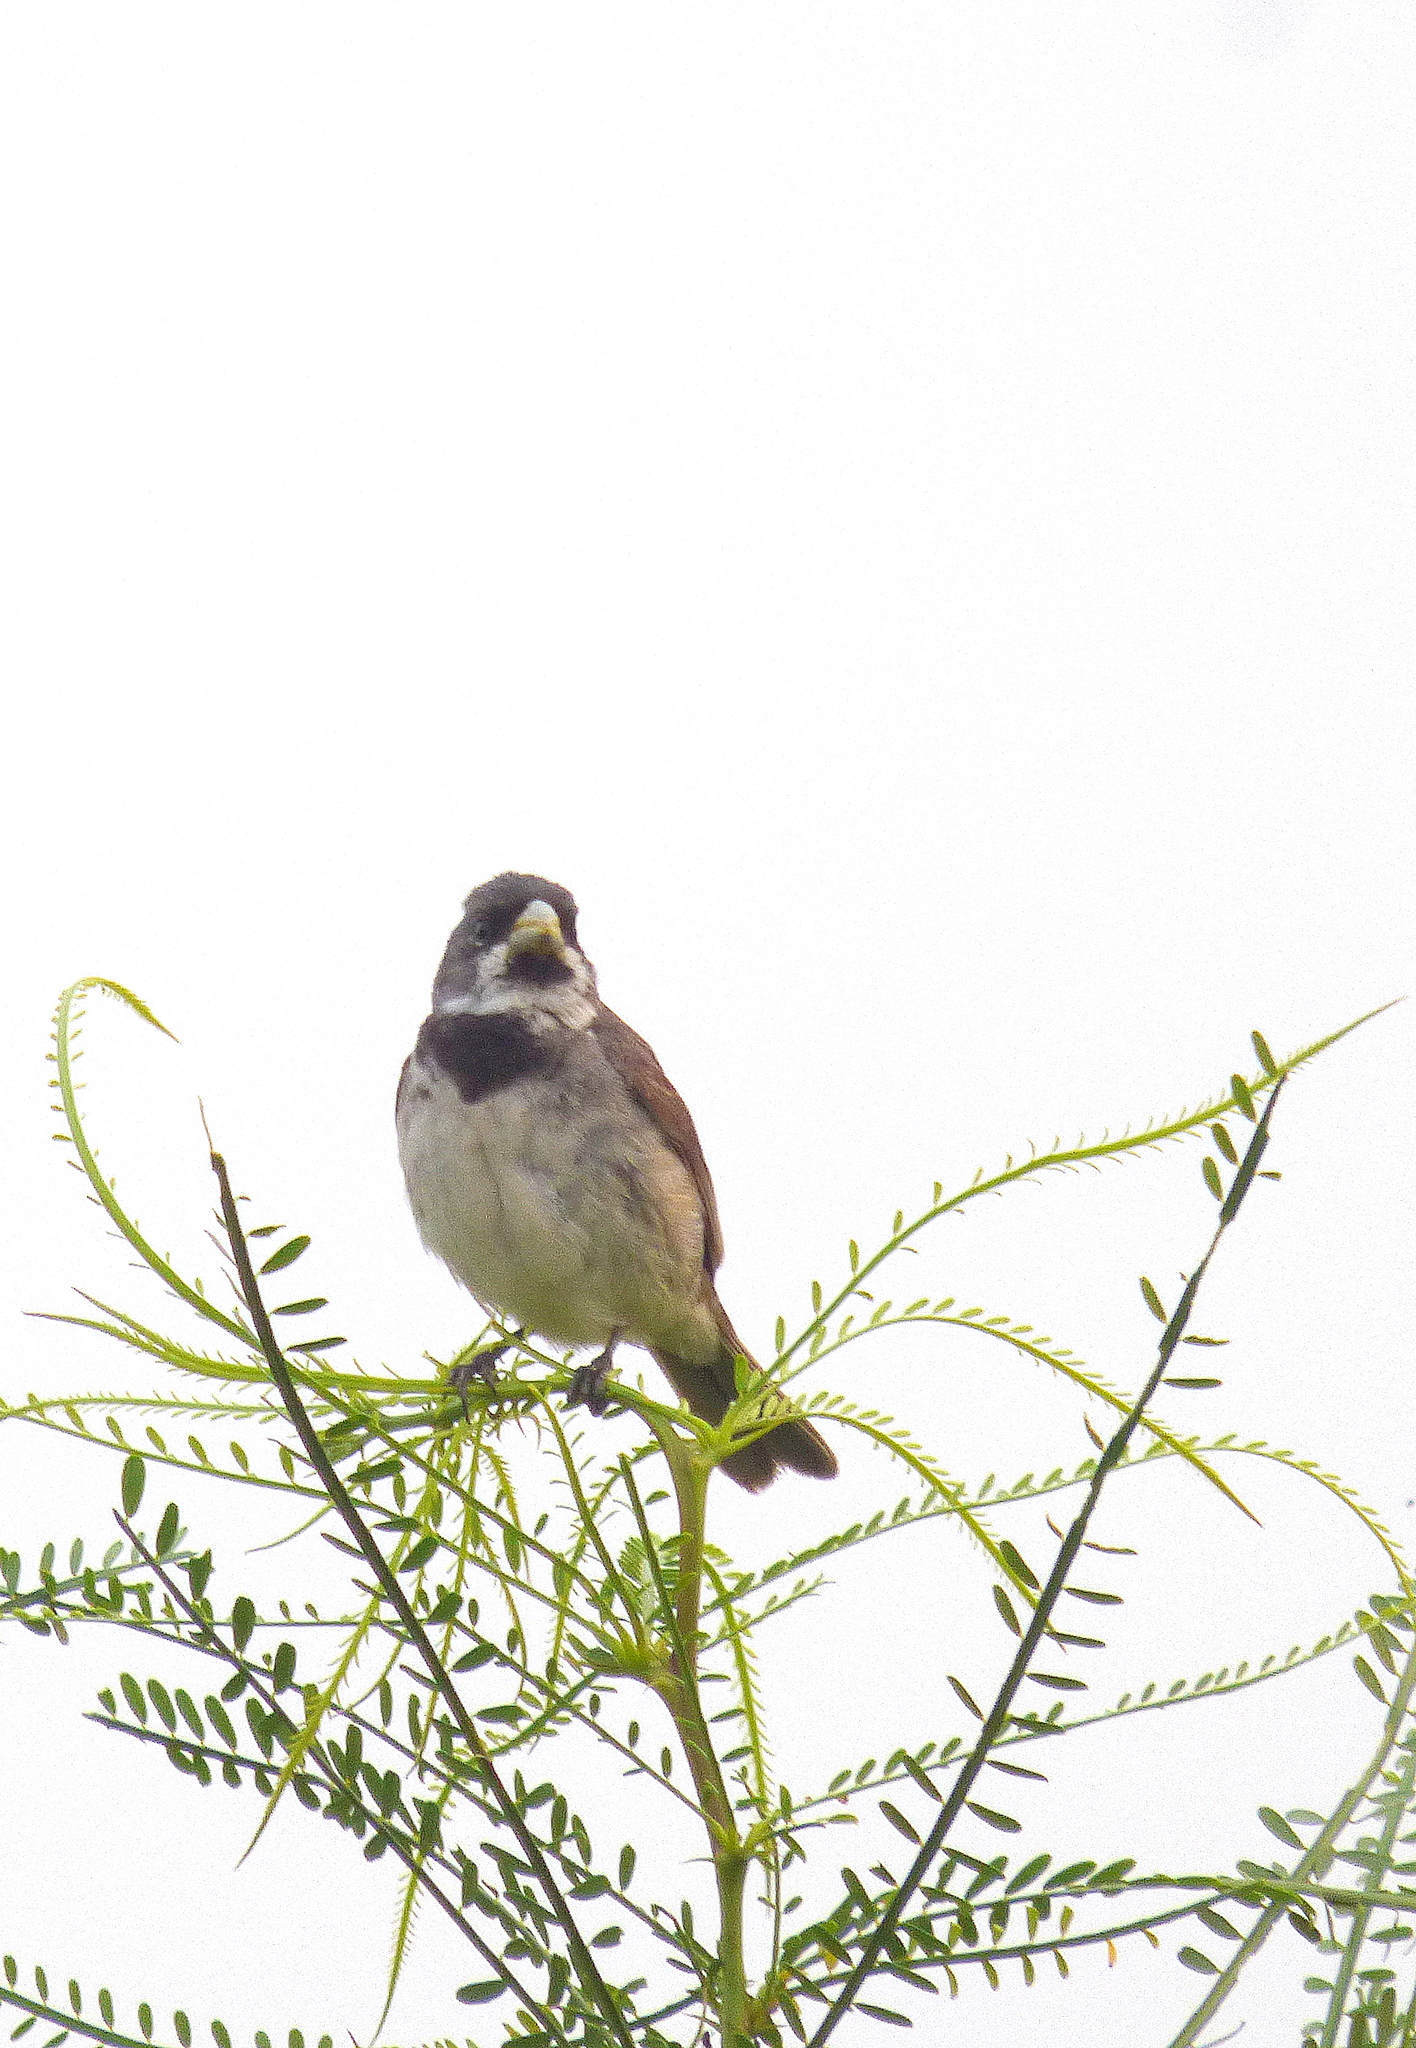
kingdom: Animalia
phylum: Chordata
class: Aves
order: Passeriformes
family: Thraupidae
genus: Sporophila
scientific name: Sporophila caerulescens
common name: Double-collared seedeater
